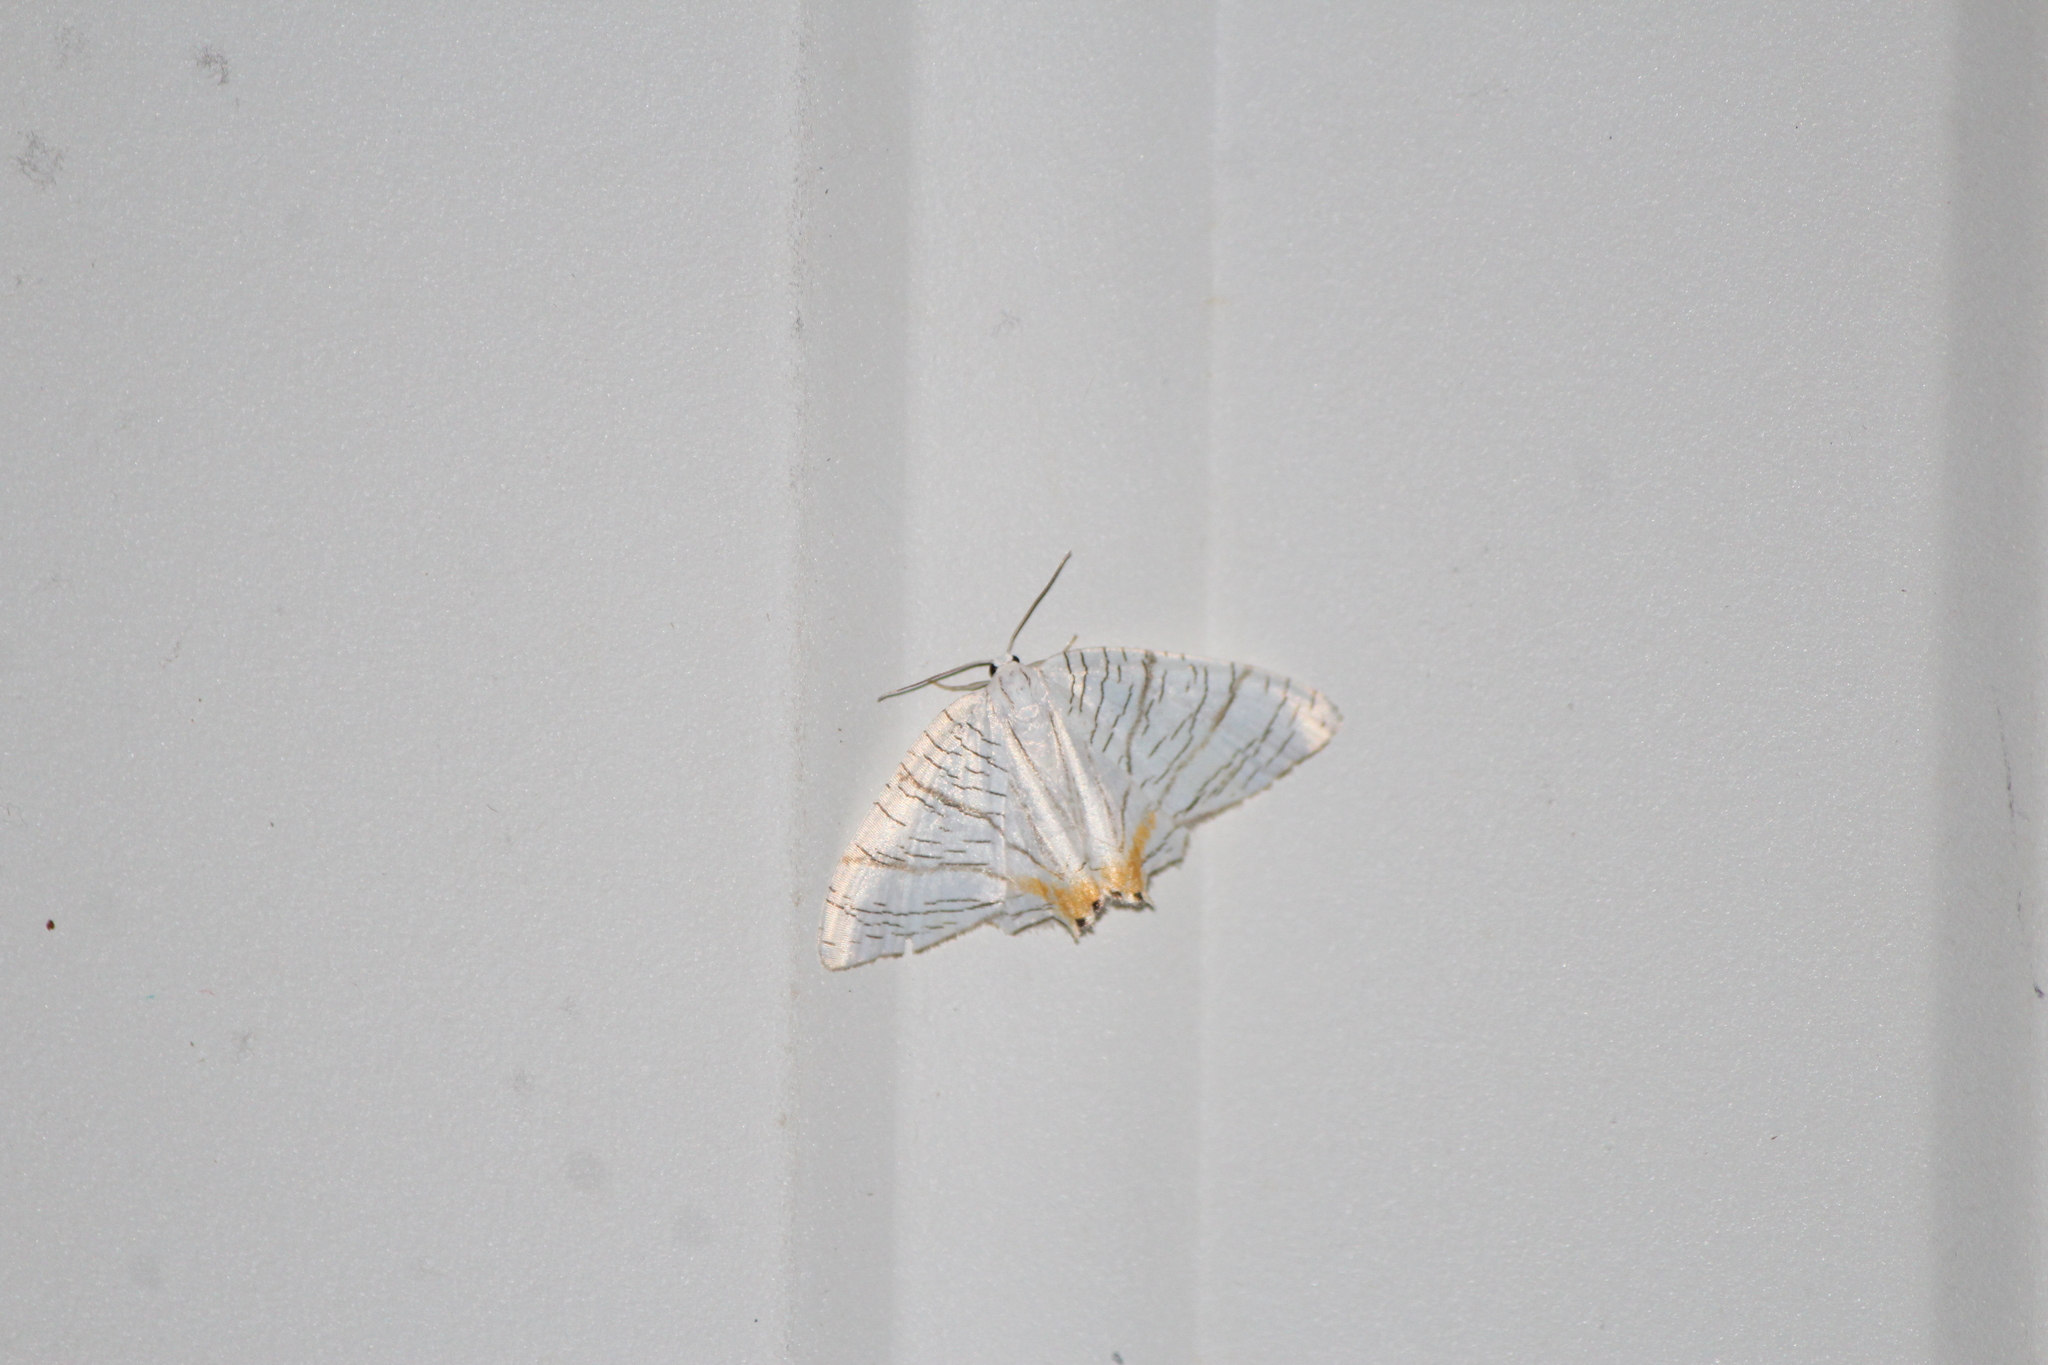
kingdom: Animalia
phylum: Arthropoda
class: Insecta
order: Lepidoptera
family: Uraniidae
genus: Meleaba
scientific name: Meleaba urania
